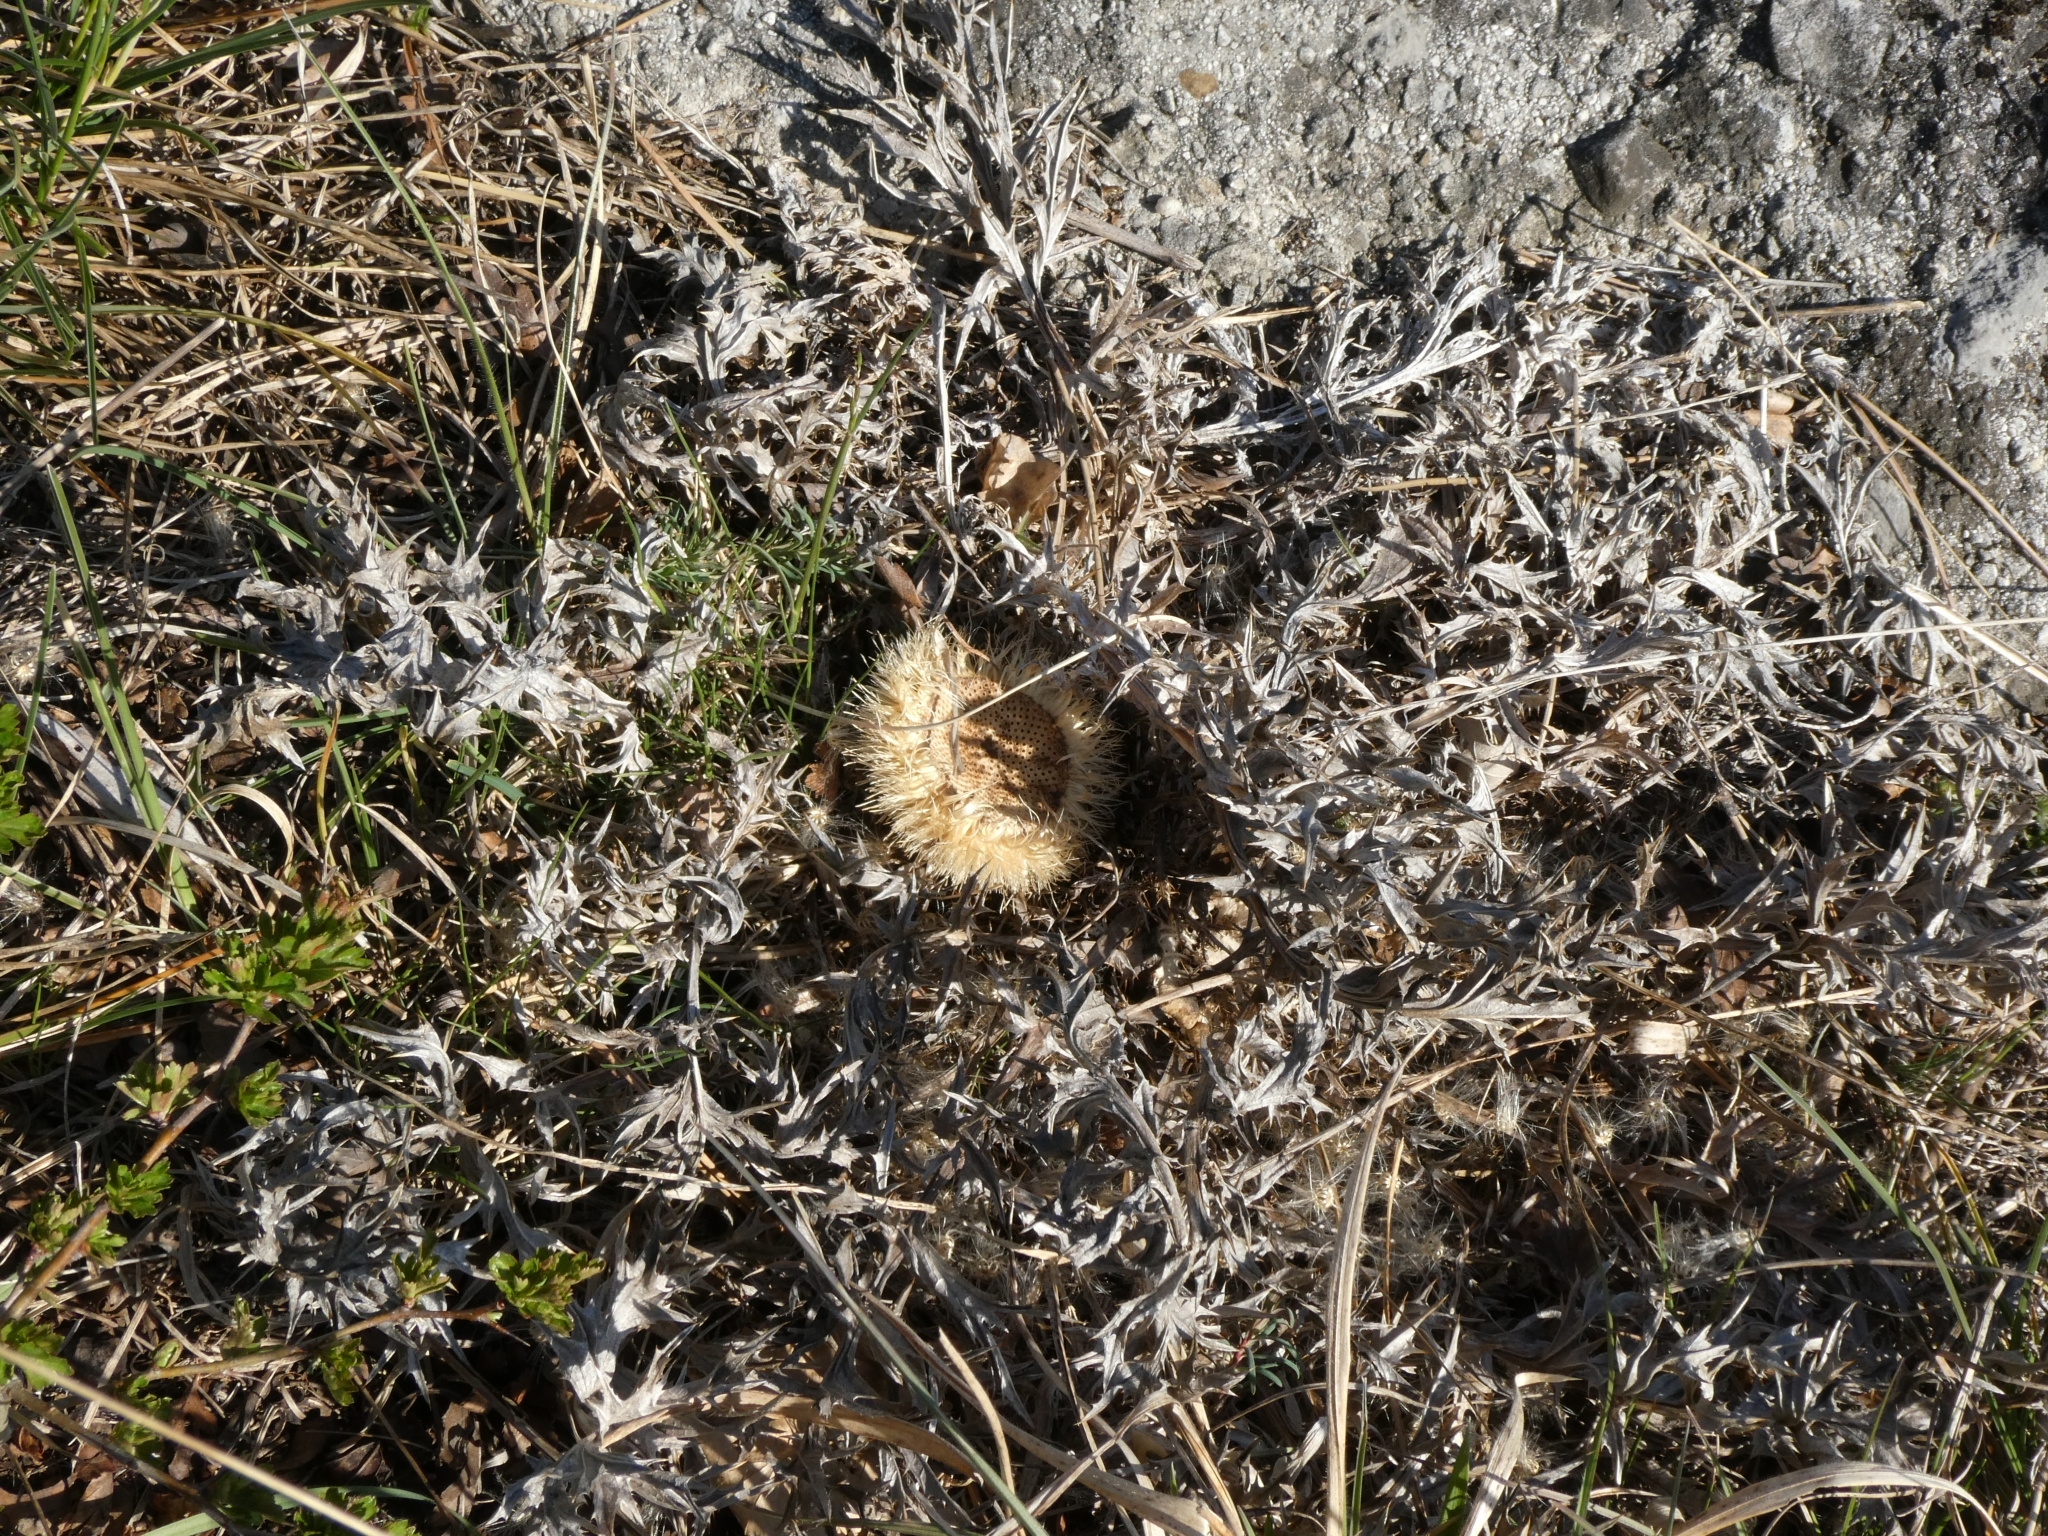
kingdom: Plantae
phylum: Tracheophyta
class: Magnoliopsida
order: Asterales
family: Asteraceae
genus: Carlina
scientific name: Carlina acaulis
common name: Stemless carline thistle
